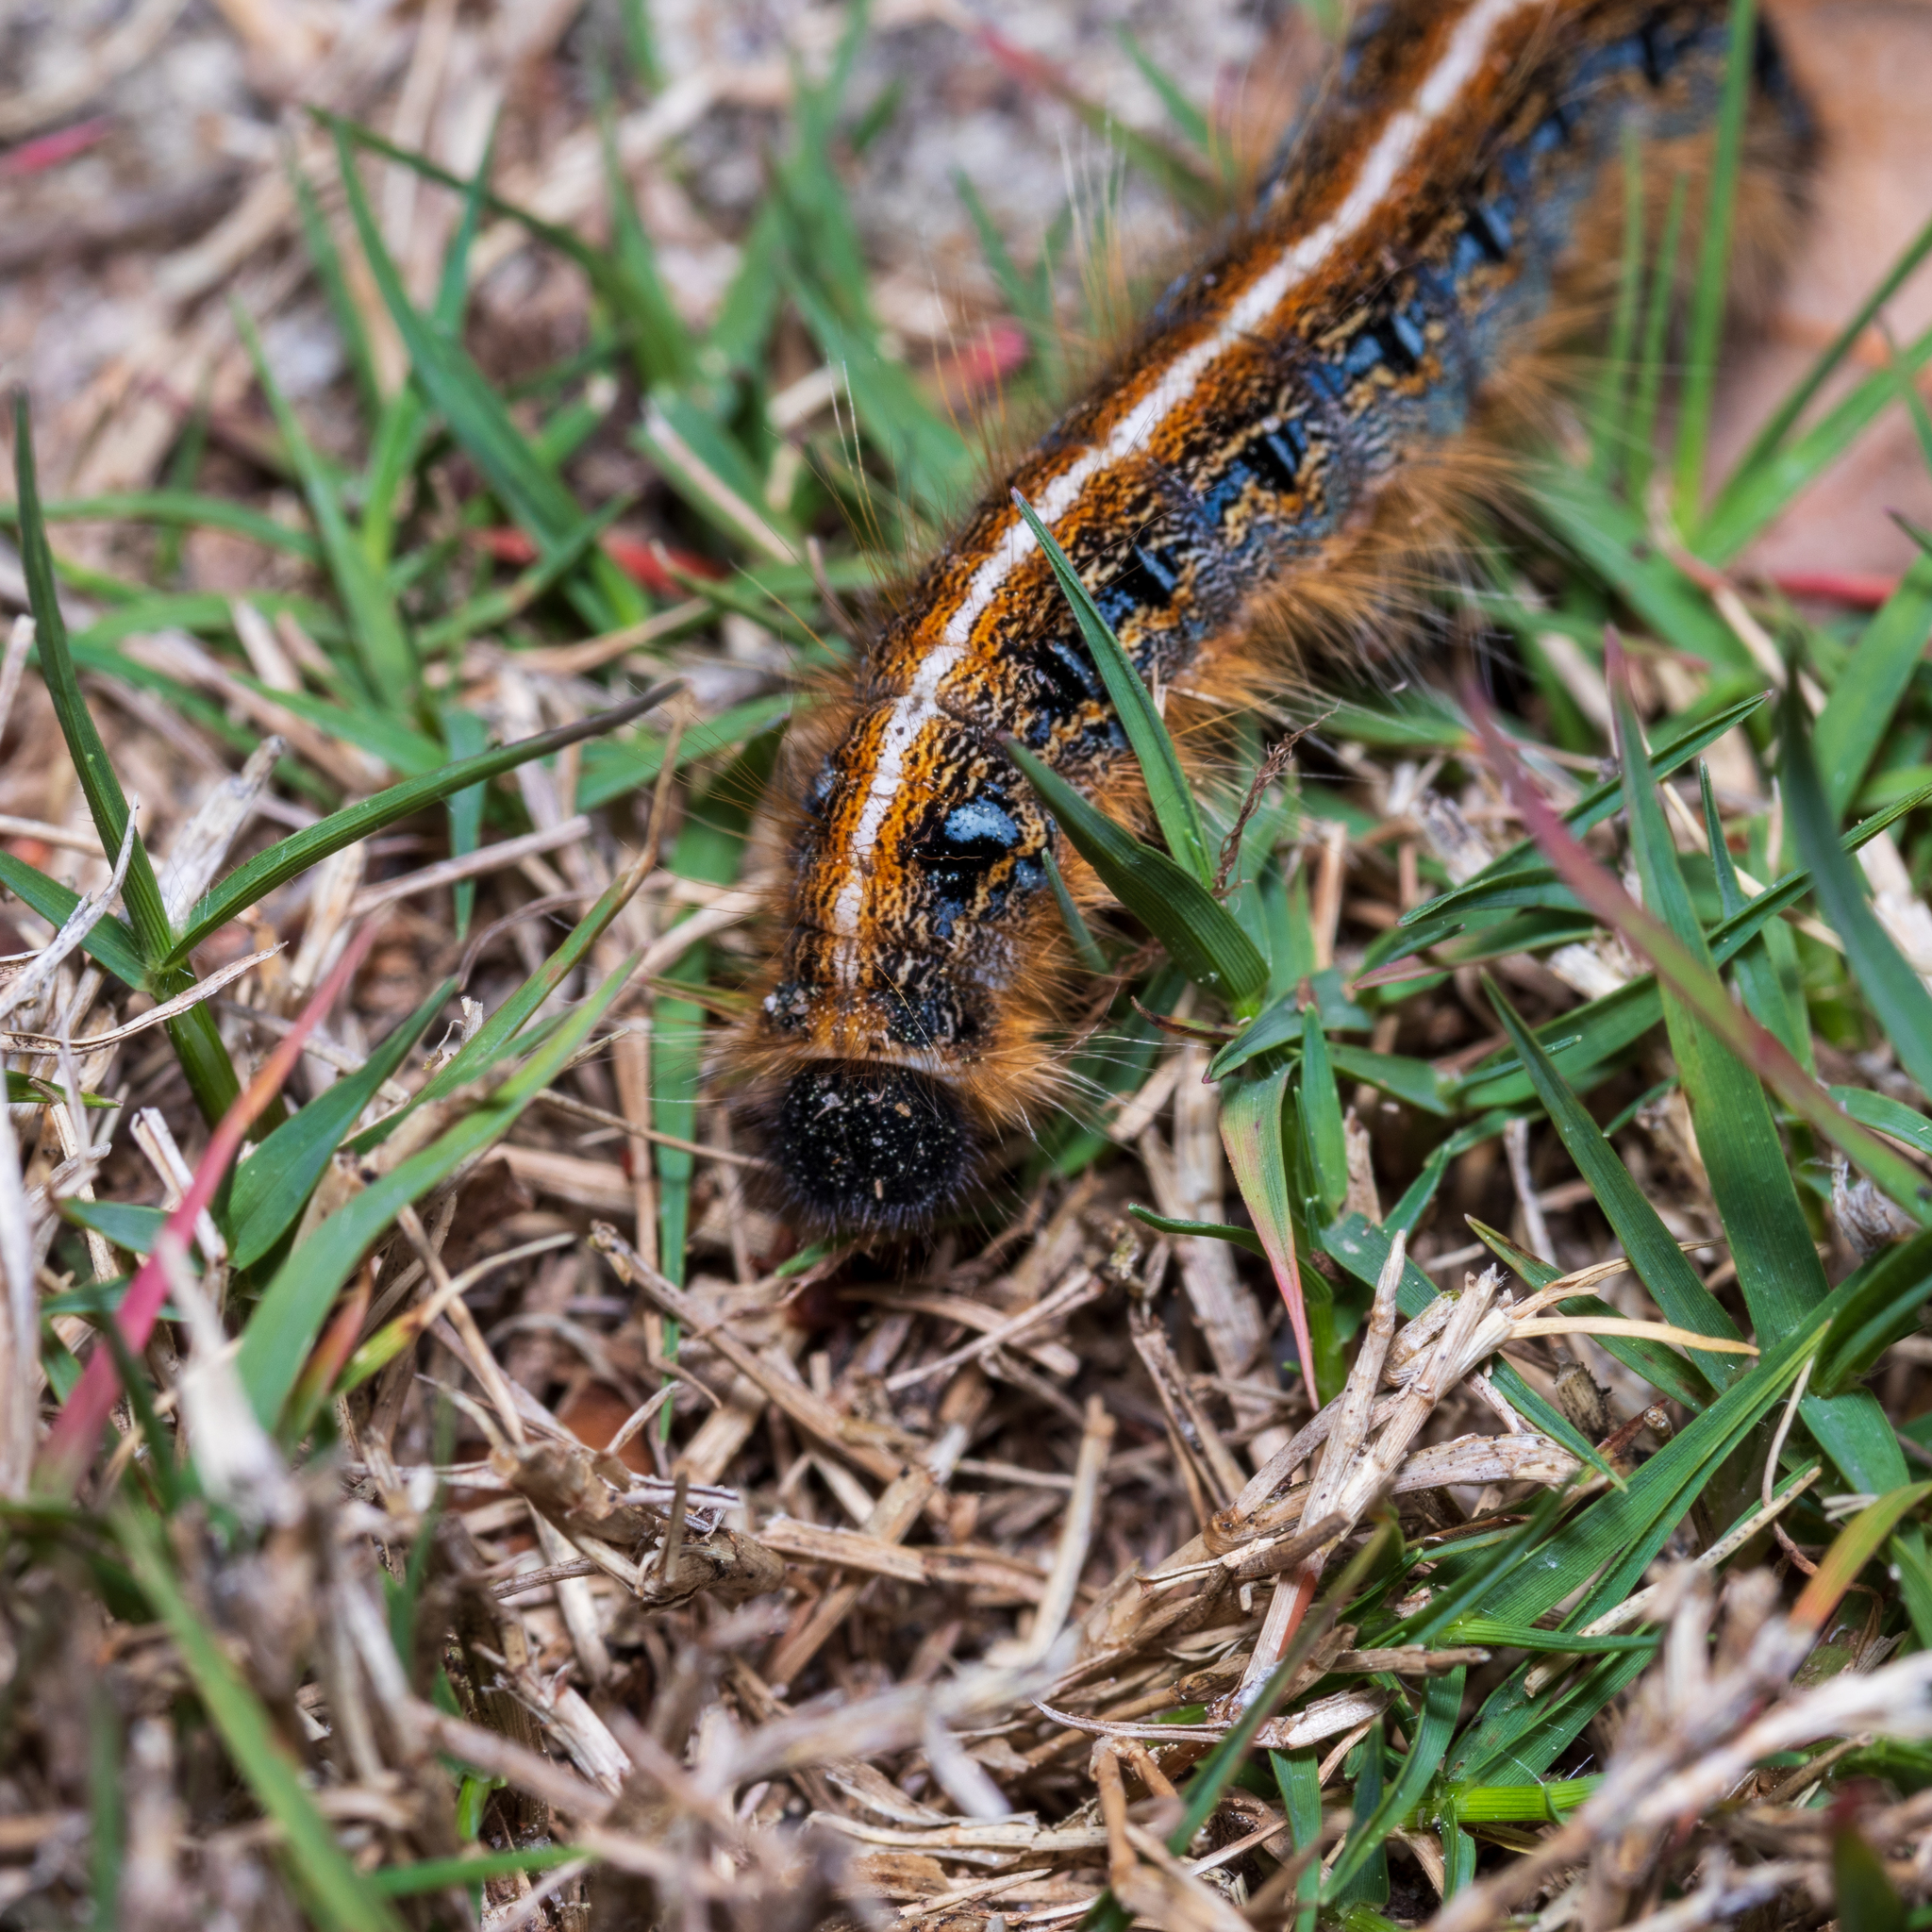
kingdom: Animalia
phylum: Arthropoda
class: Insecta
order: Lepidoptera
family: Lasiocampidae
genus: Malacosoma
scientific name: Malacosoma americana
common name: Eastern tent caterpillar moth
